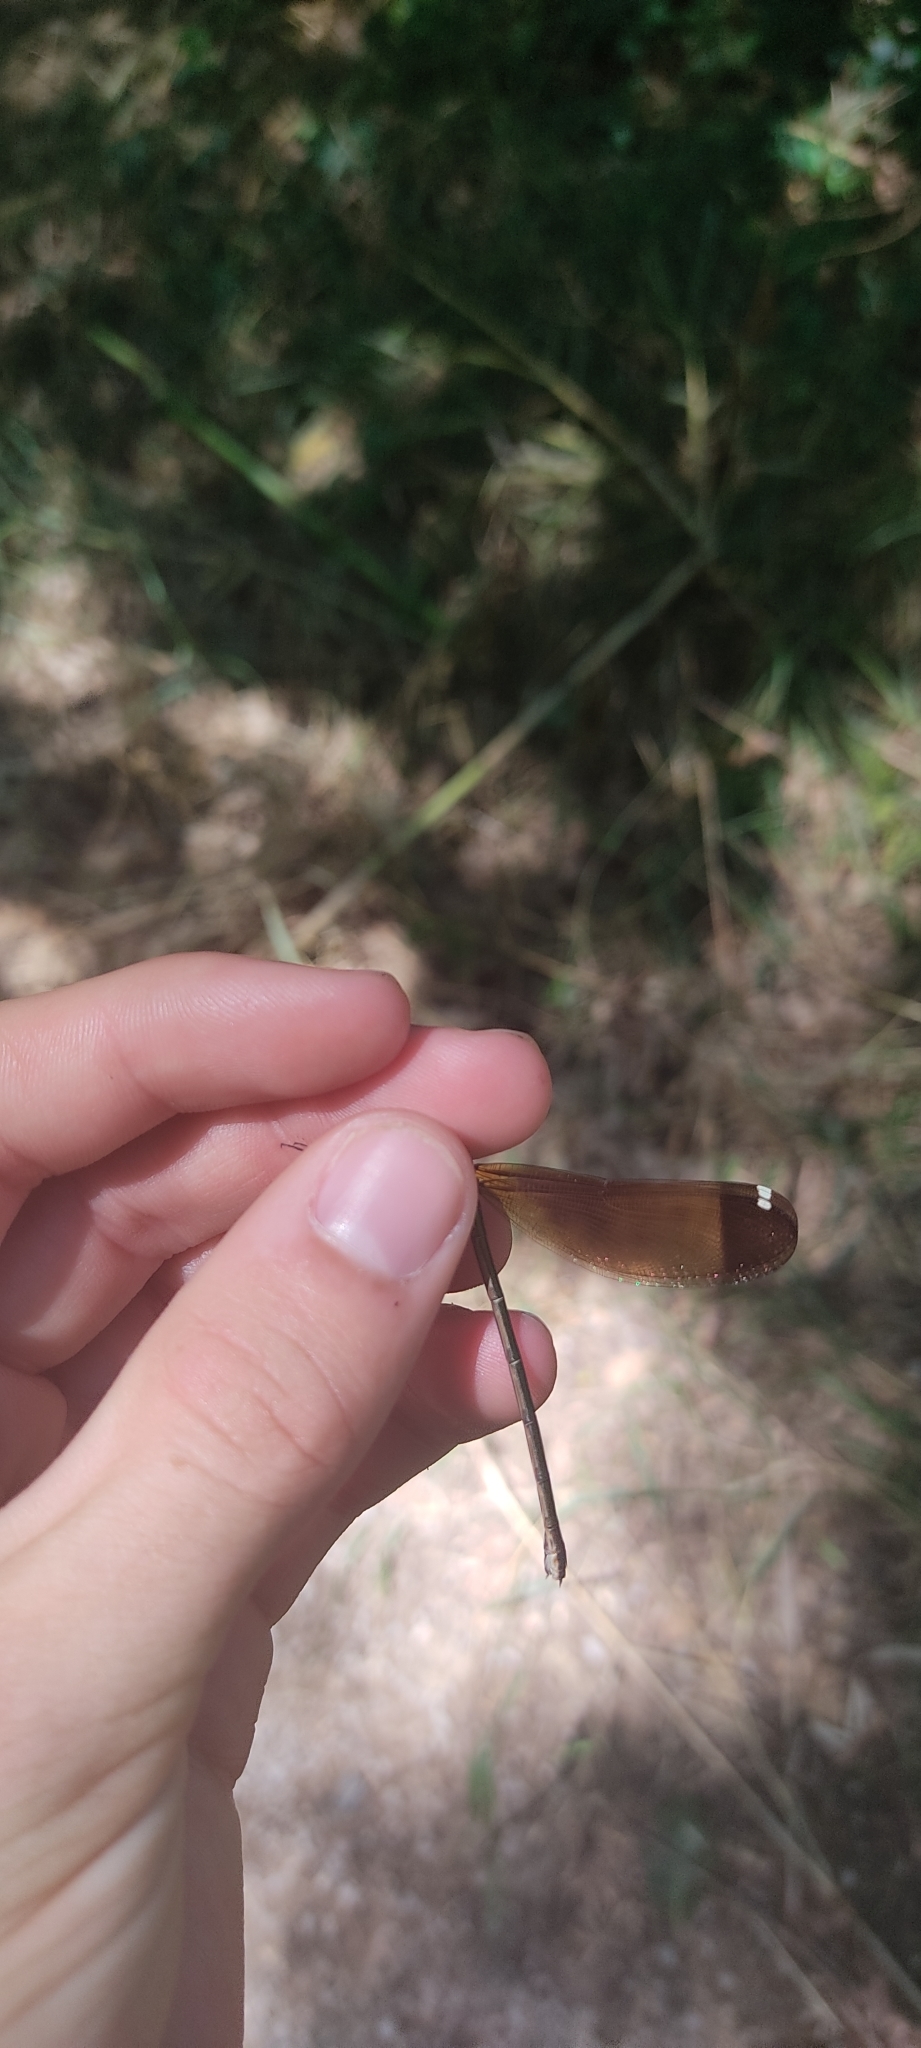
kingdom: Animalia
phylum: Arthropoda
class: Insecta
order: Odonata
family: Calopterygidae
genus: Calopteryx
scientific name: Calopteryx haemorrhoidalis
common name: Copper demoiselle
